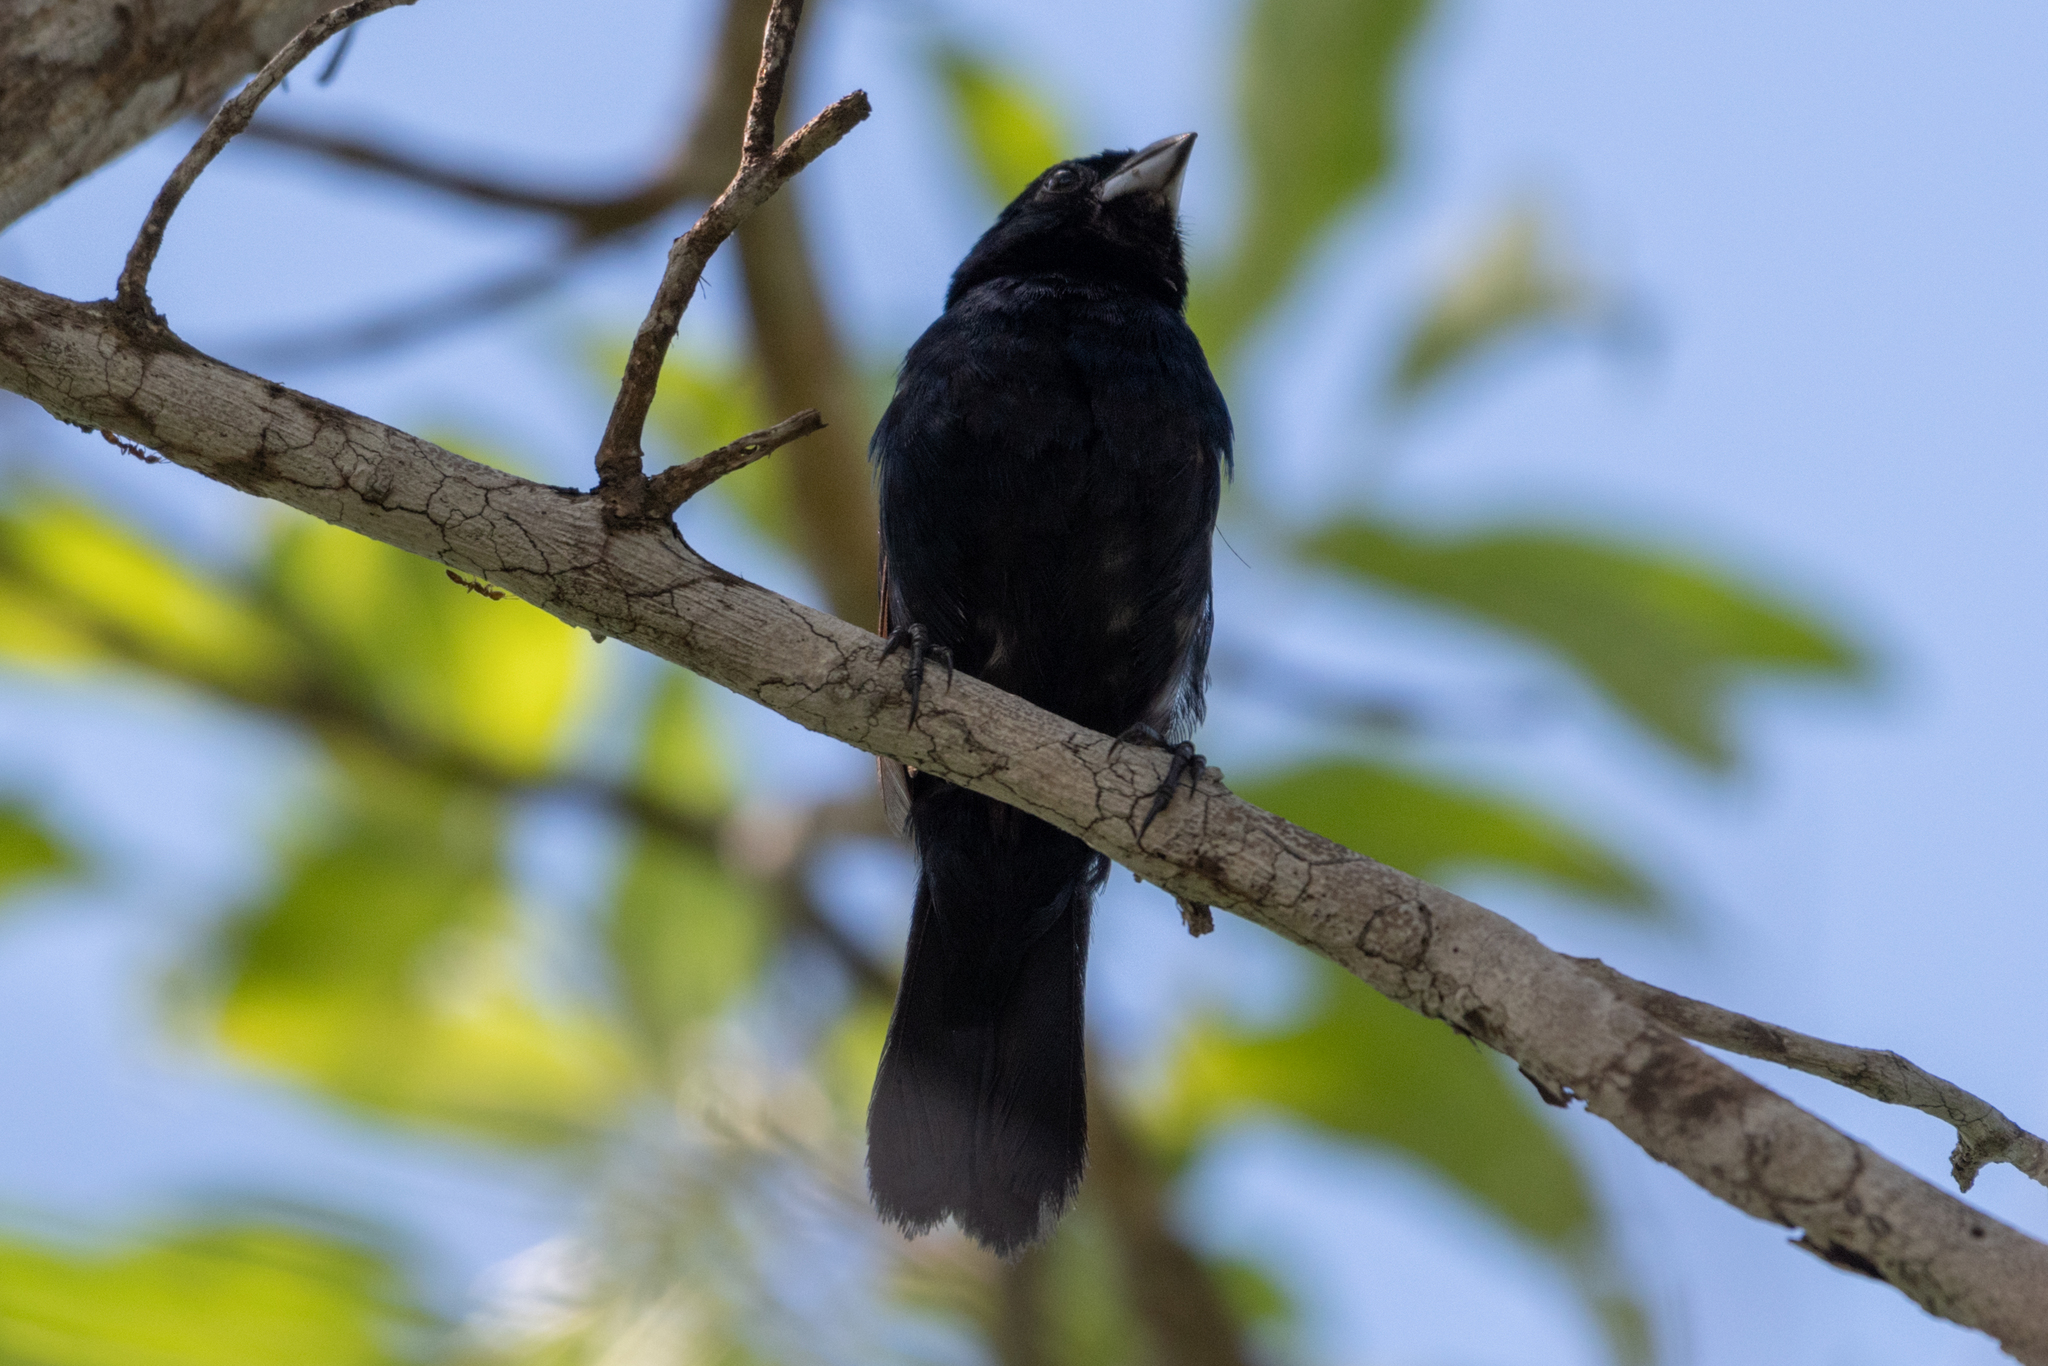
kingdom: Animalia
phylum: Chordata
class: Aves
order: Passeriformes
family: Thraupidae
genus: Volatinia
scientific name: Volatinia jacarina
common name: Blue-black grassquit
